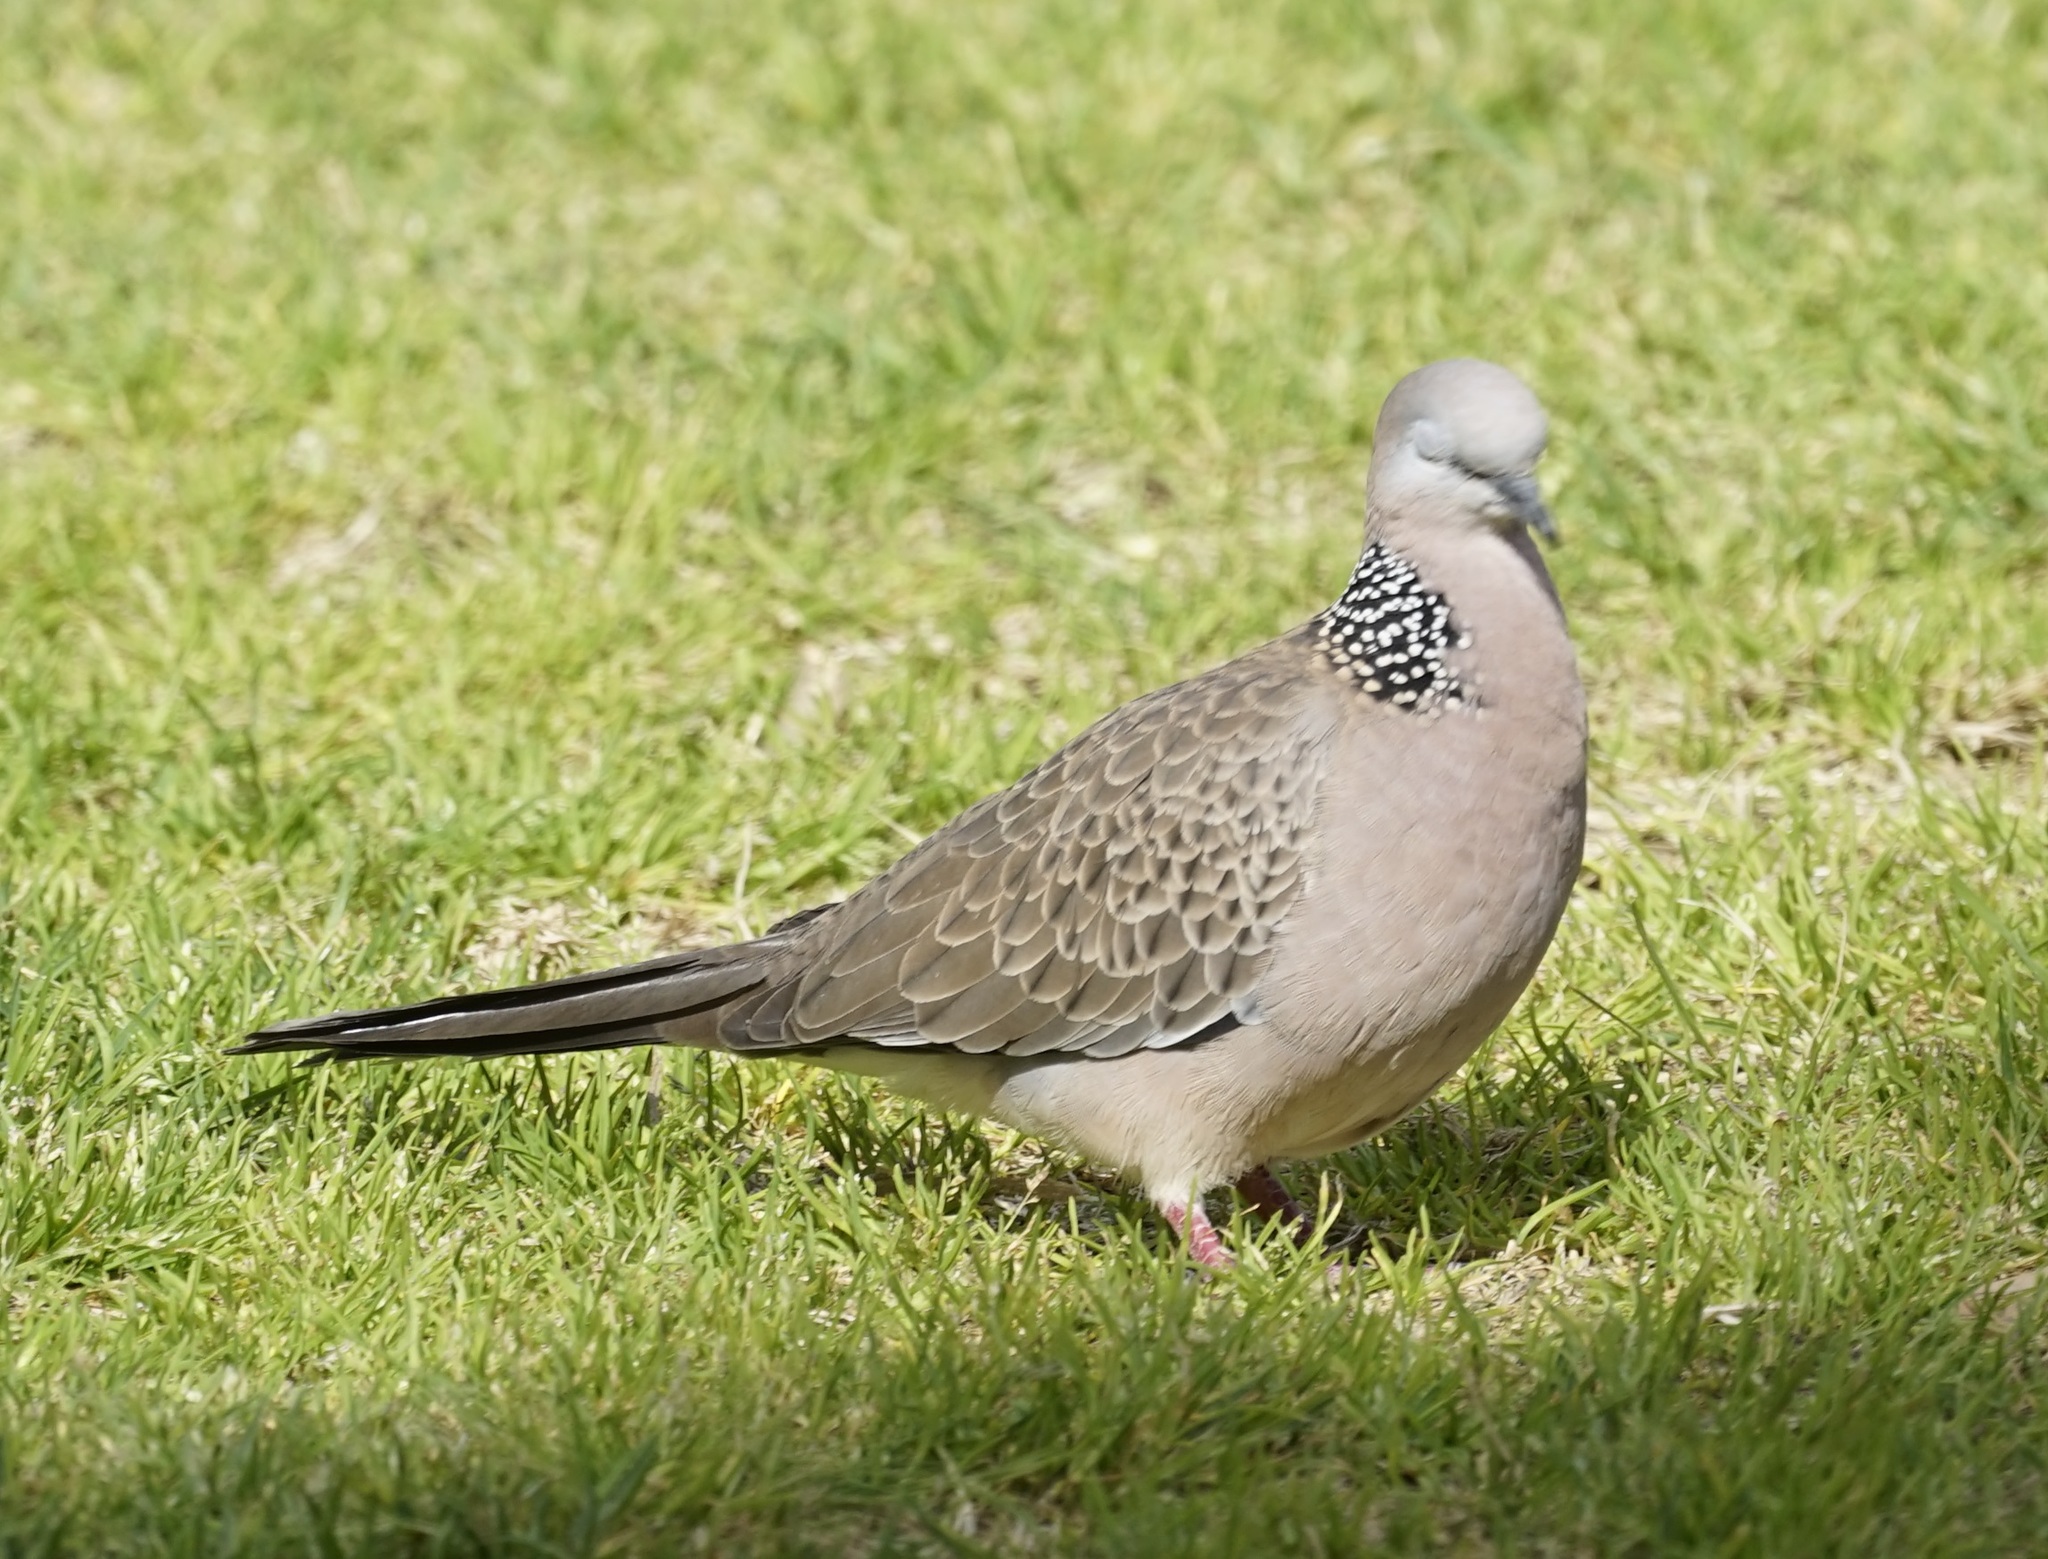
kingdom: Animalia
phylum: Chordata
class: Aves
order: Columbiformes
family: Columbidae
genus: Spilopelia
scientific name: Spilopelia chinensis
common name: Spotted dove
